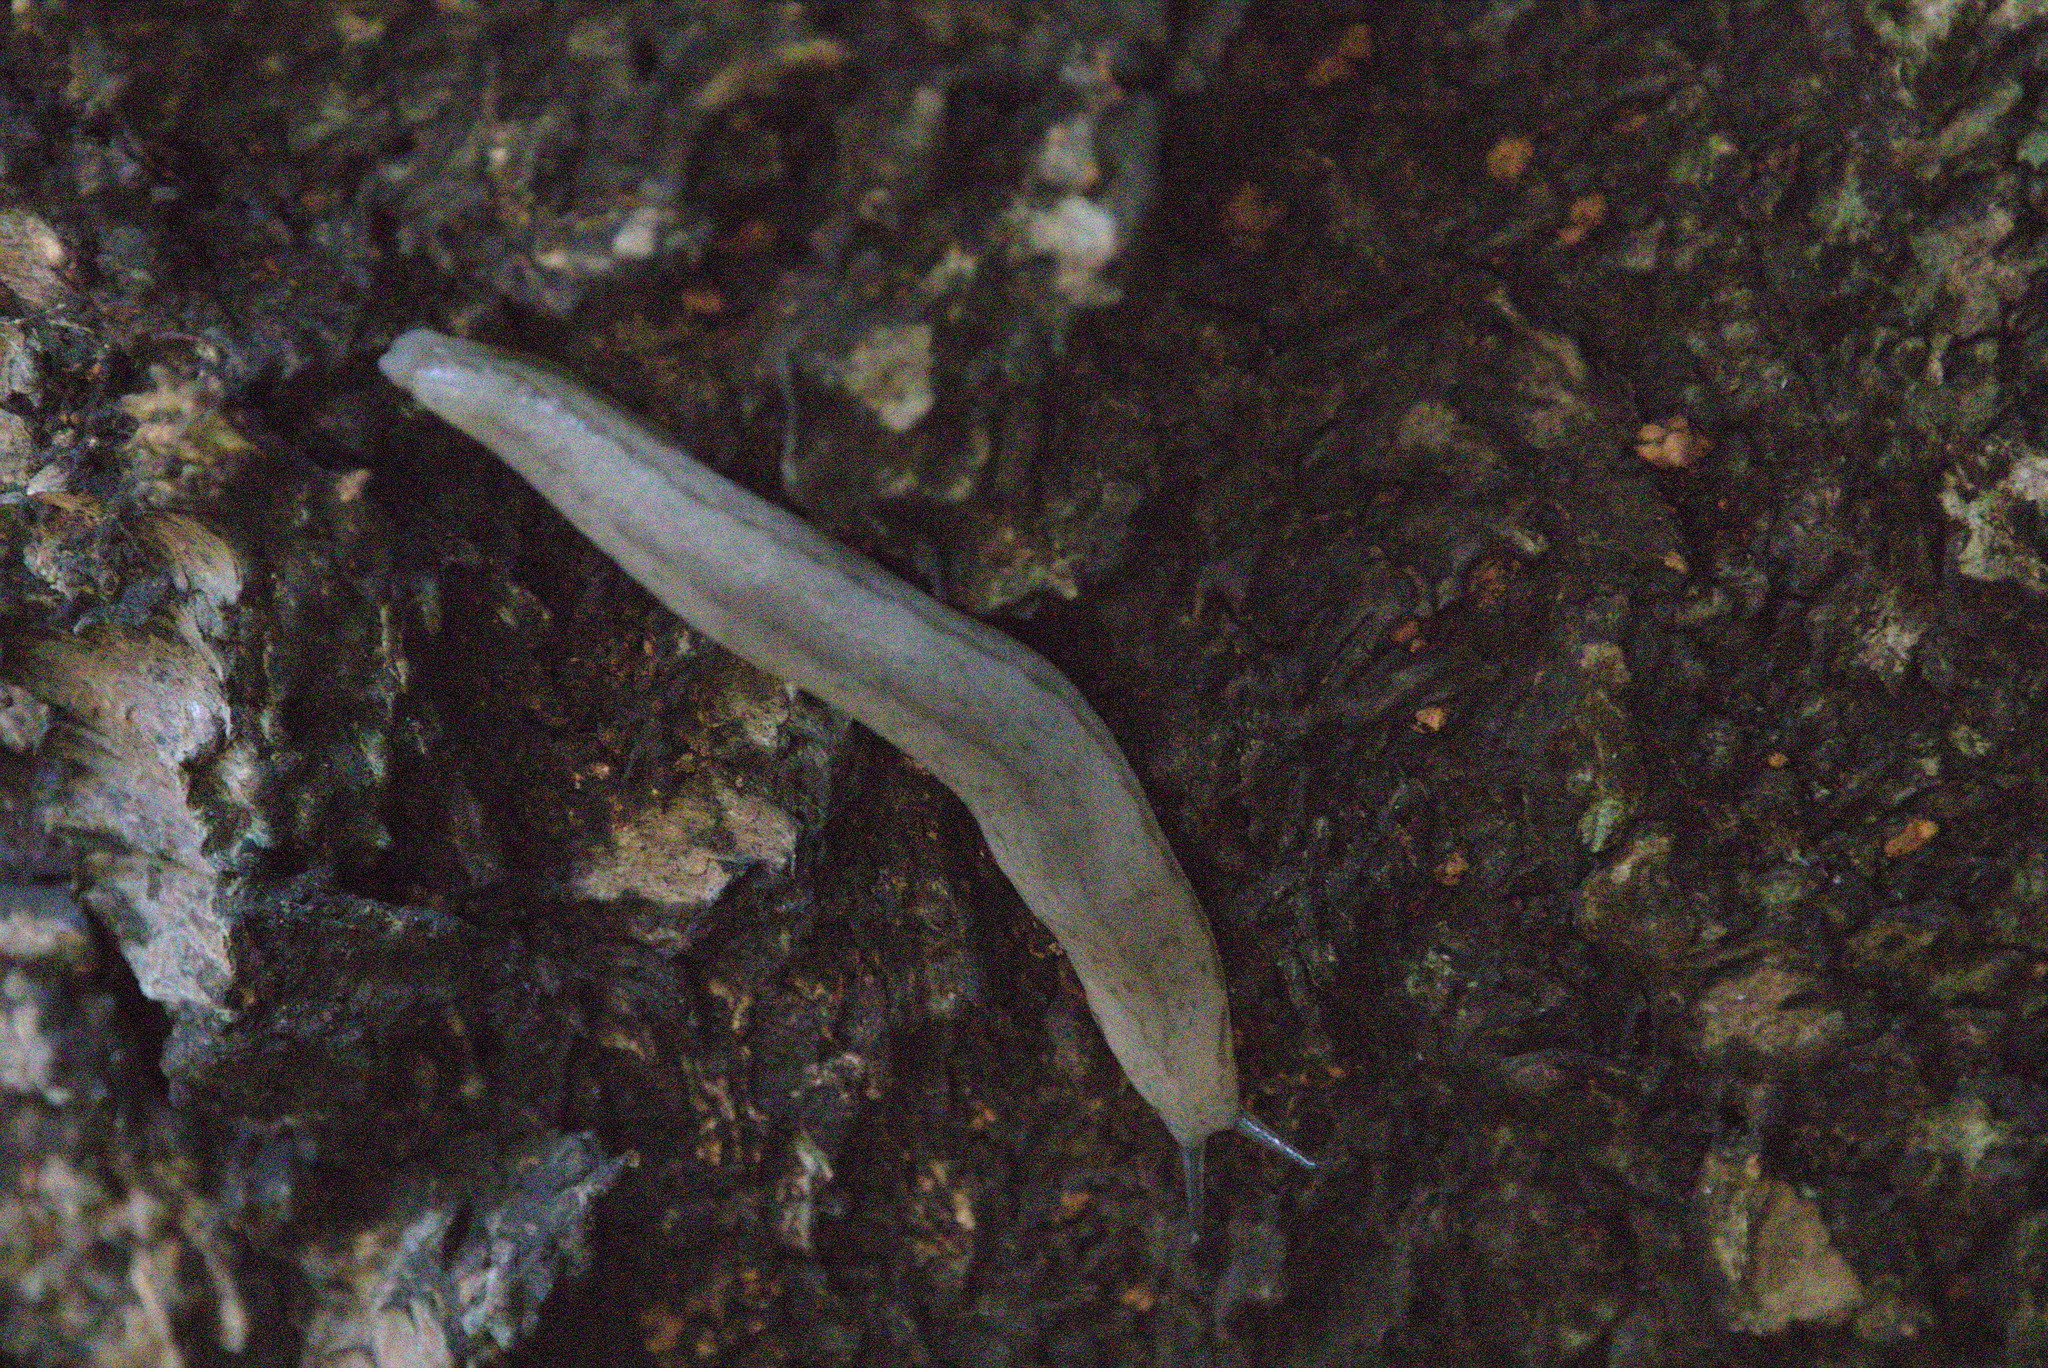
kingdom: Animalia
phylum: Mollusca
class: Gastropoda
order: Stylommatophora
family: Philomycidae
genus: Meghimatium
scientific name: Meghimatium bilineatum
